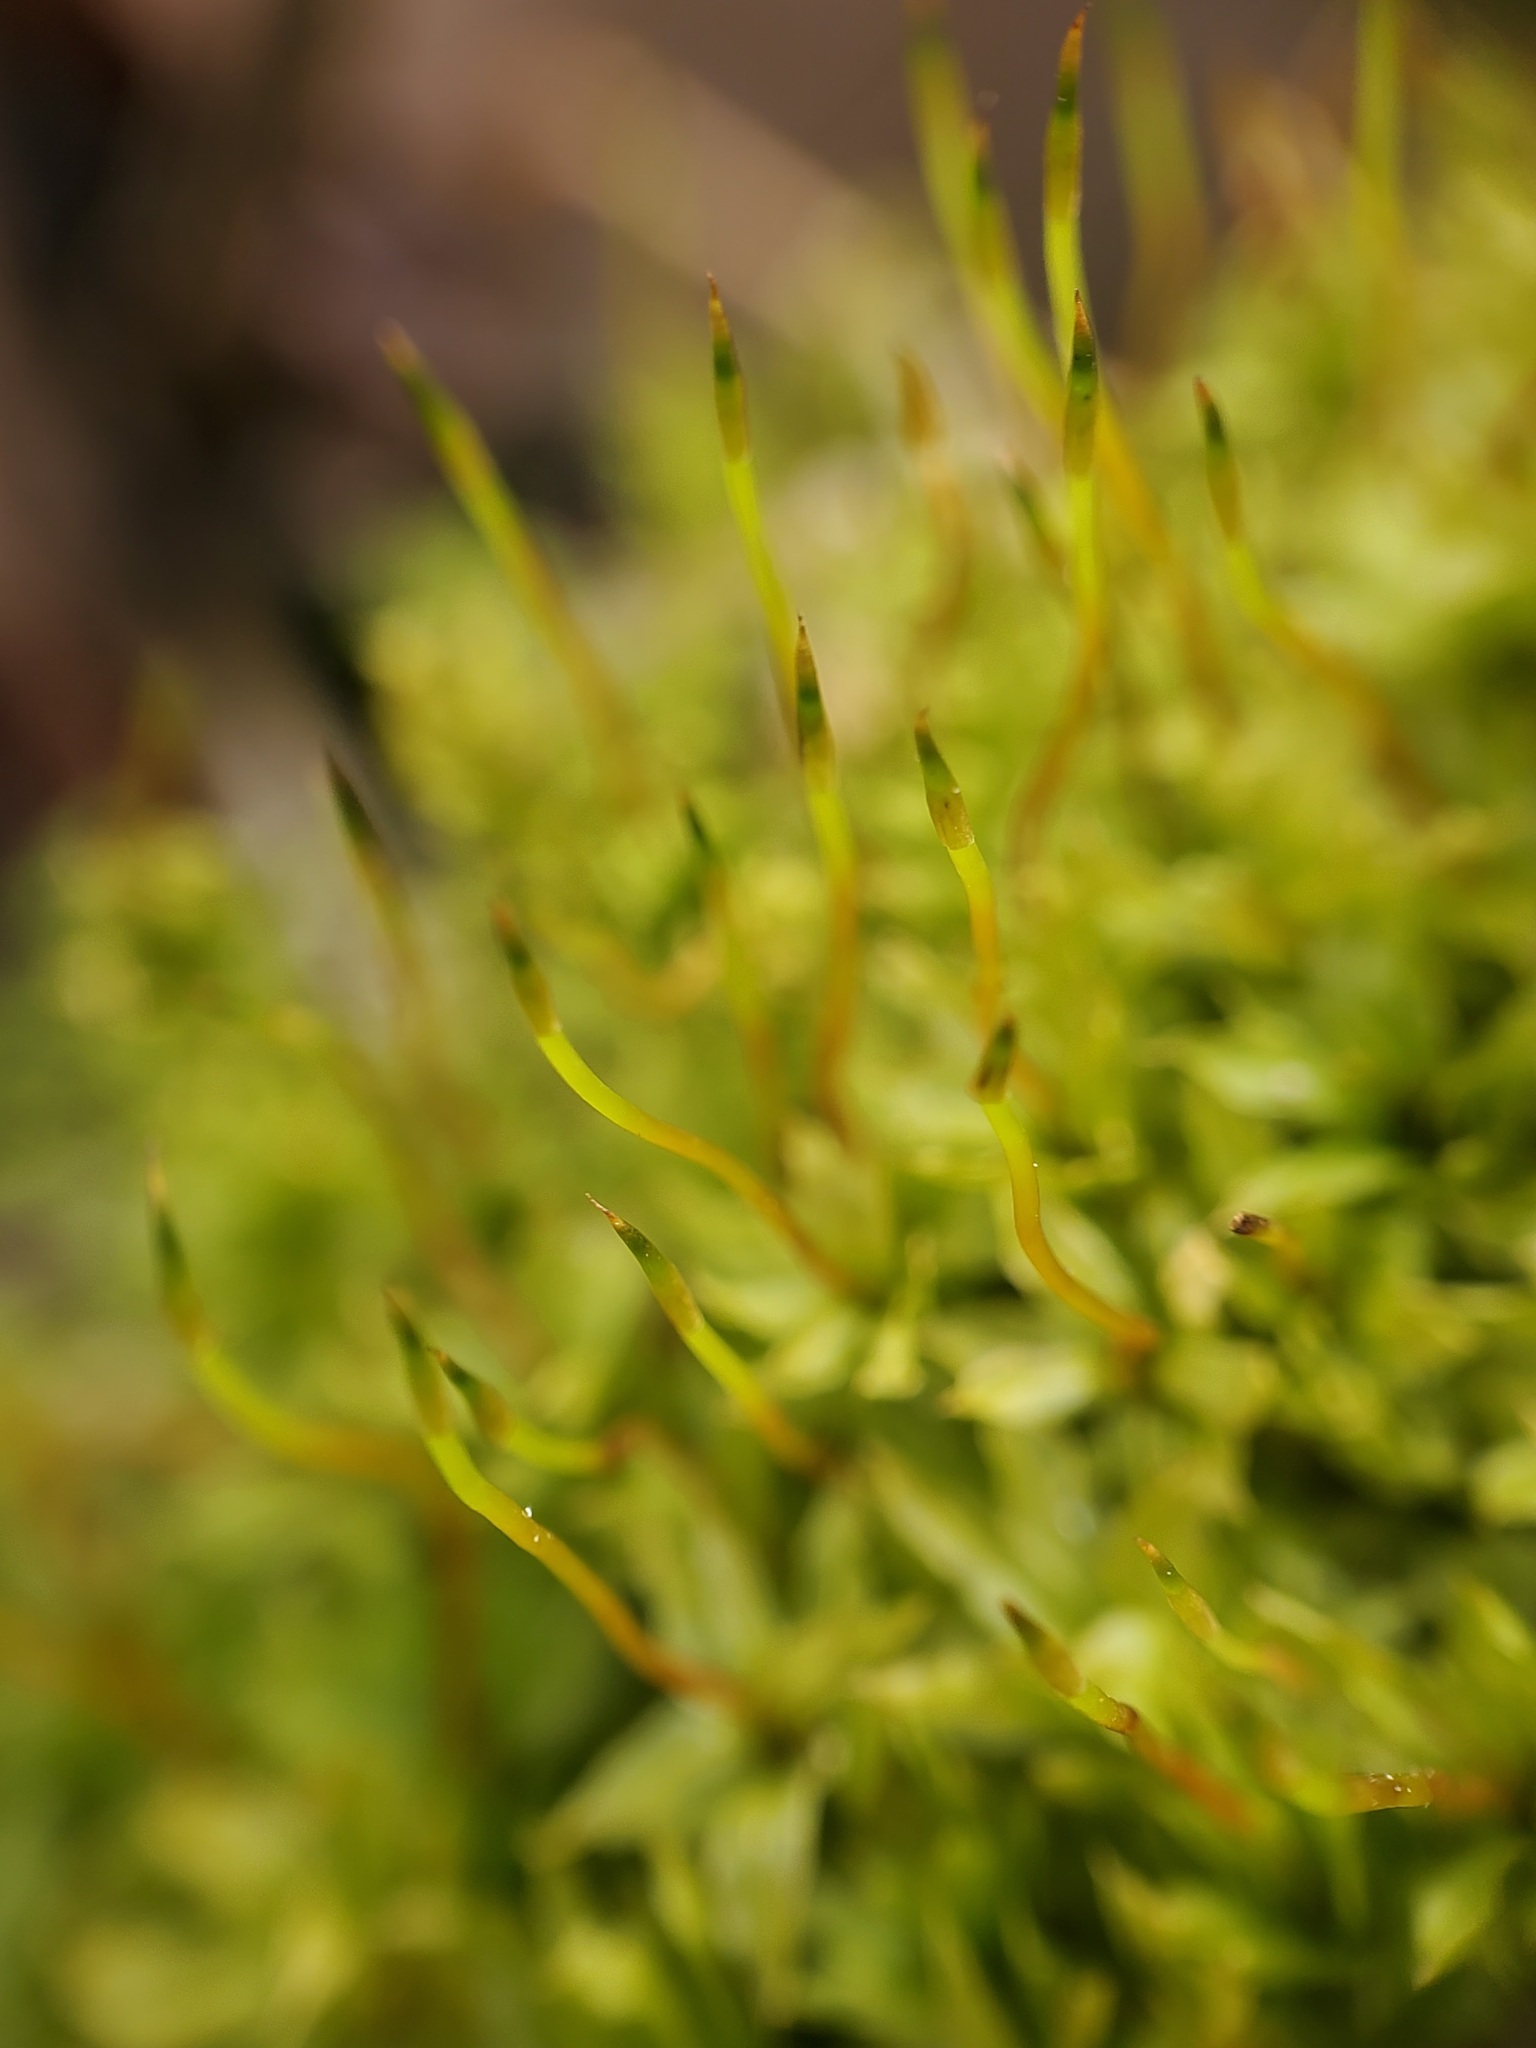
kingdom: Plantae
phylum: Bryophyta
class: Bryopsida
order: Bryales
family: Mniaceae
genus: Plagiomnium
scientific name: Plagiomnium cuspidatum
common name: Woodsy leafy moss
